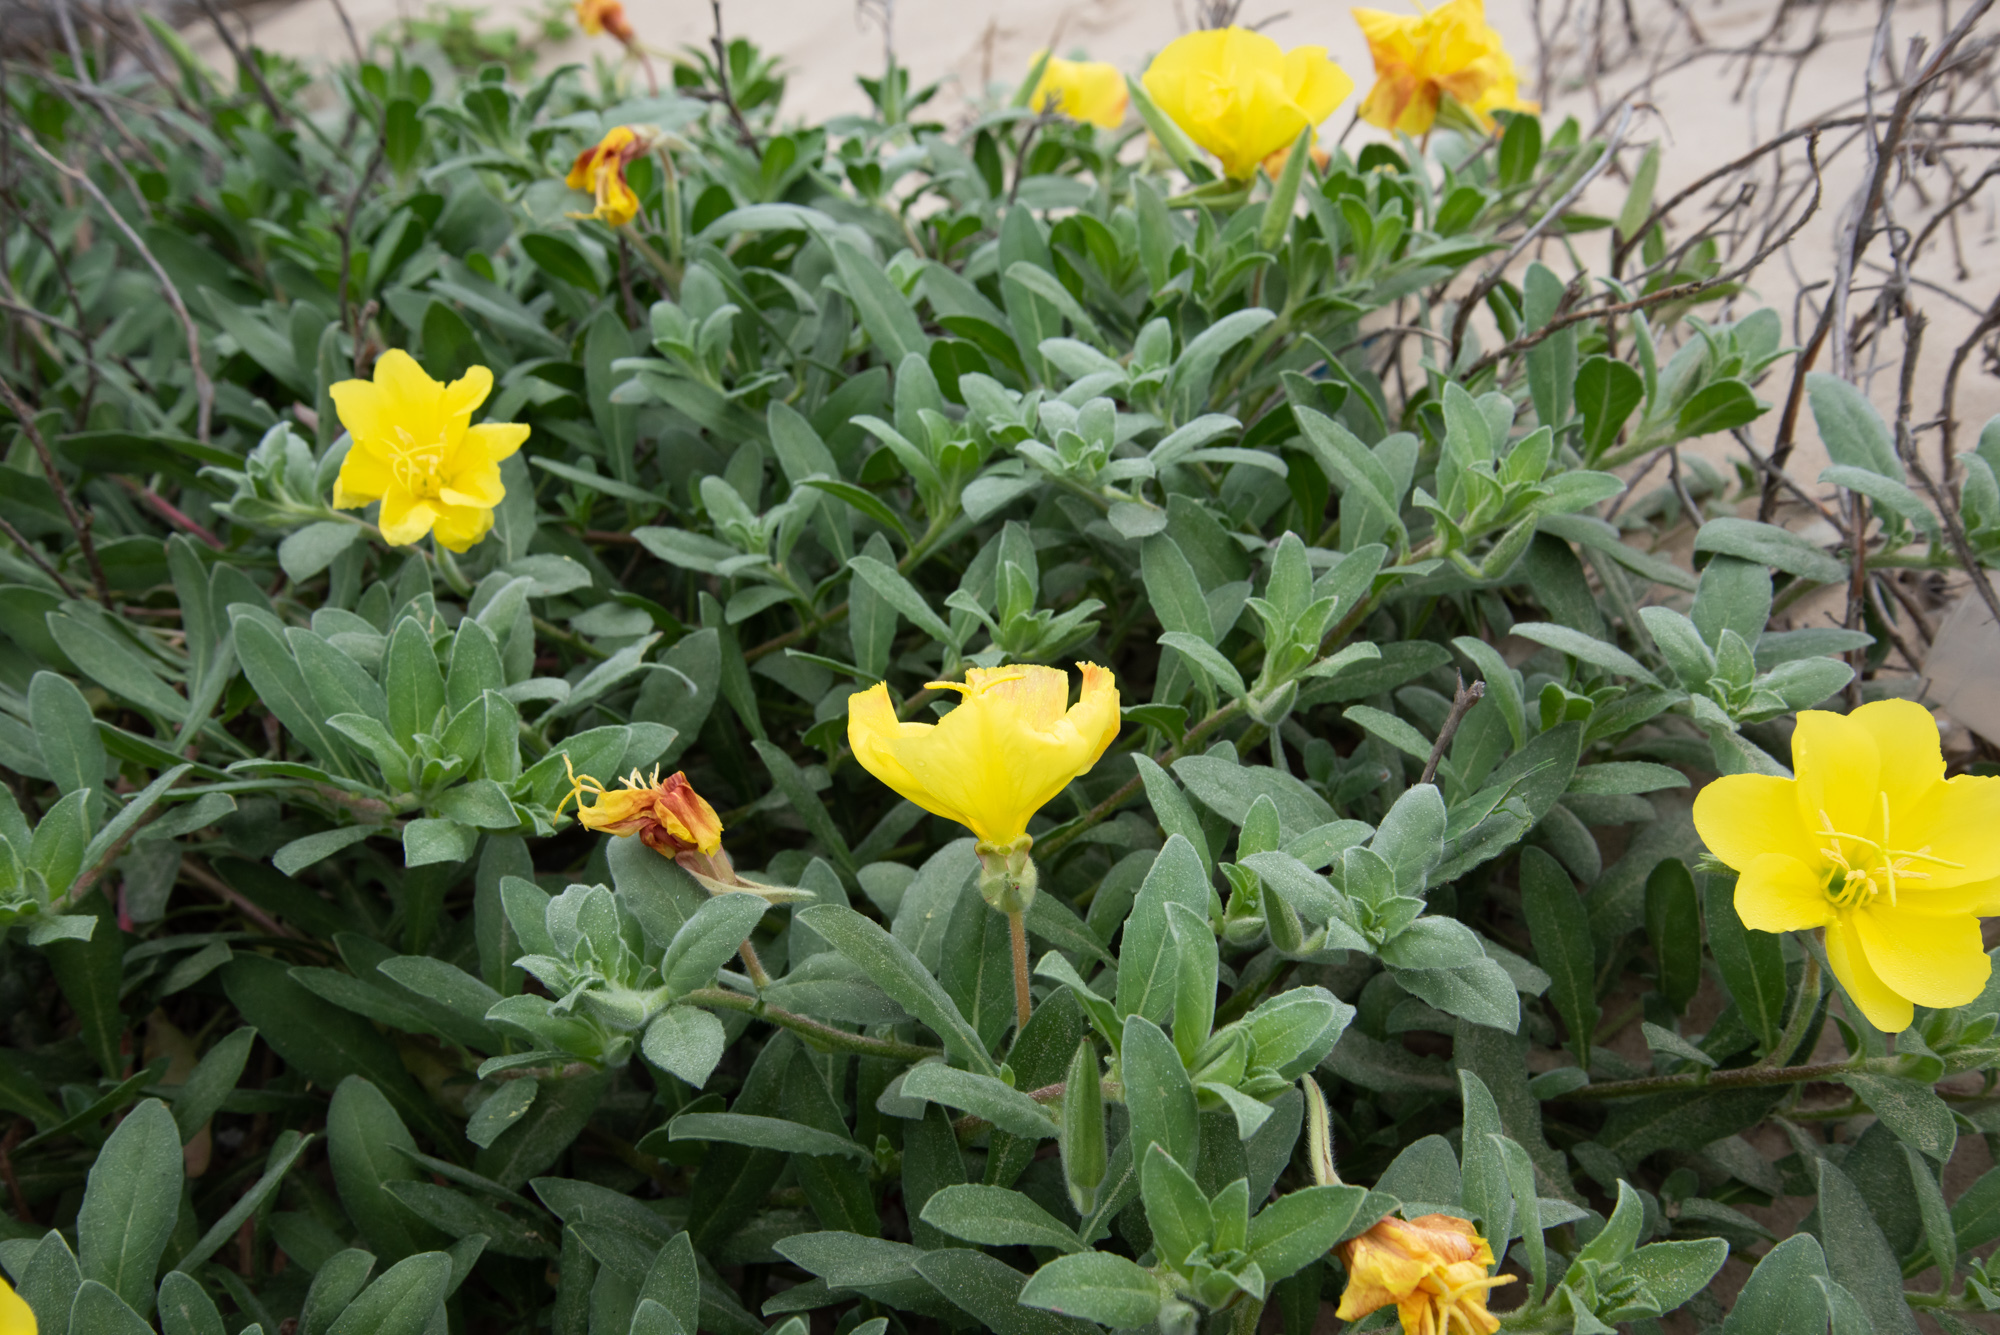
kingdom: Plantae
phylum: Tracheophyta
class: Magnoliopsida
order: Myrtales
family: Onagraceae
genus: Oenothera
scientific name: Oenothera drummondii
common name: Beach evening-primrose
